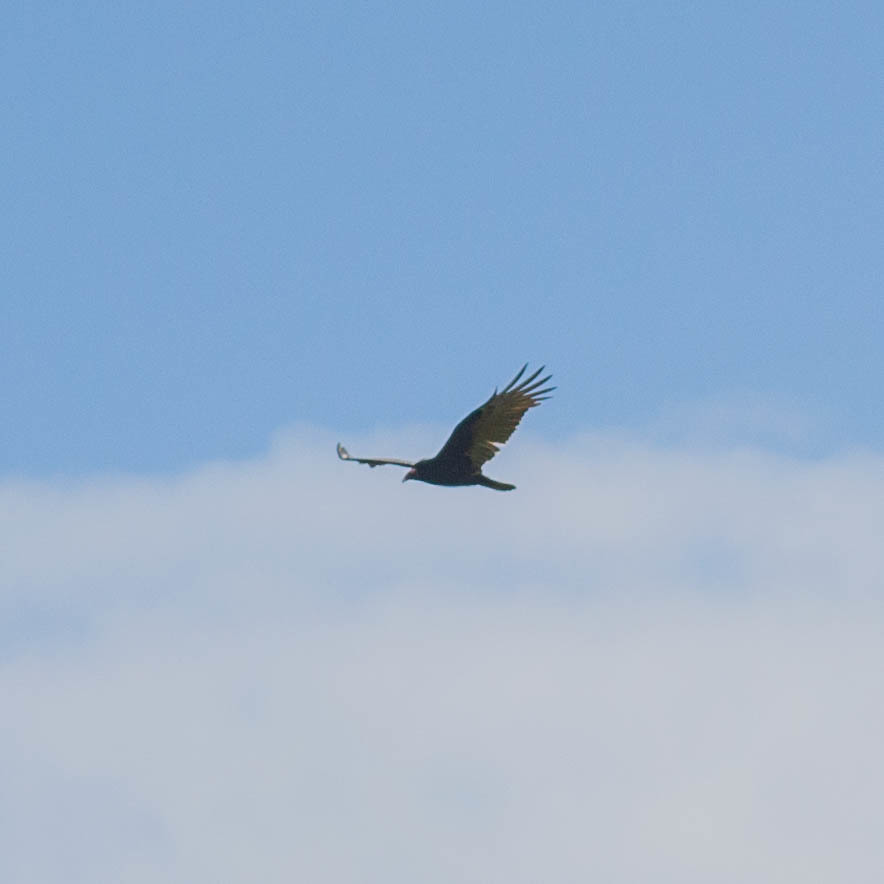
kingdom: Animalia
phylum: Chordata
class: Aves
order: Accipitriformes
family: Cathartidae
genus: Cathartes
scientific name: Cathartes aura
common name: Turkey vulture
